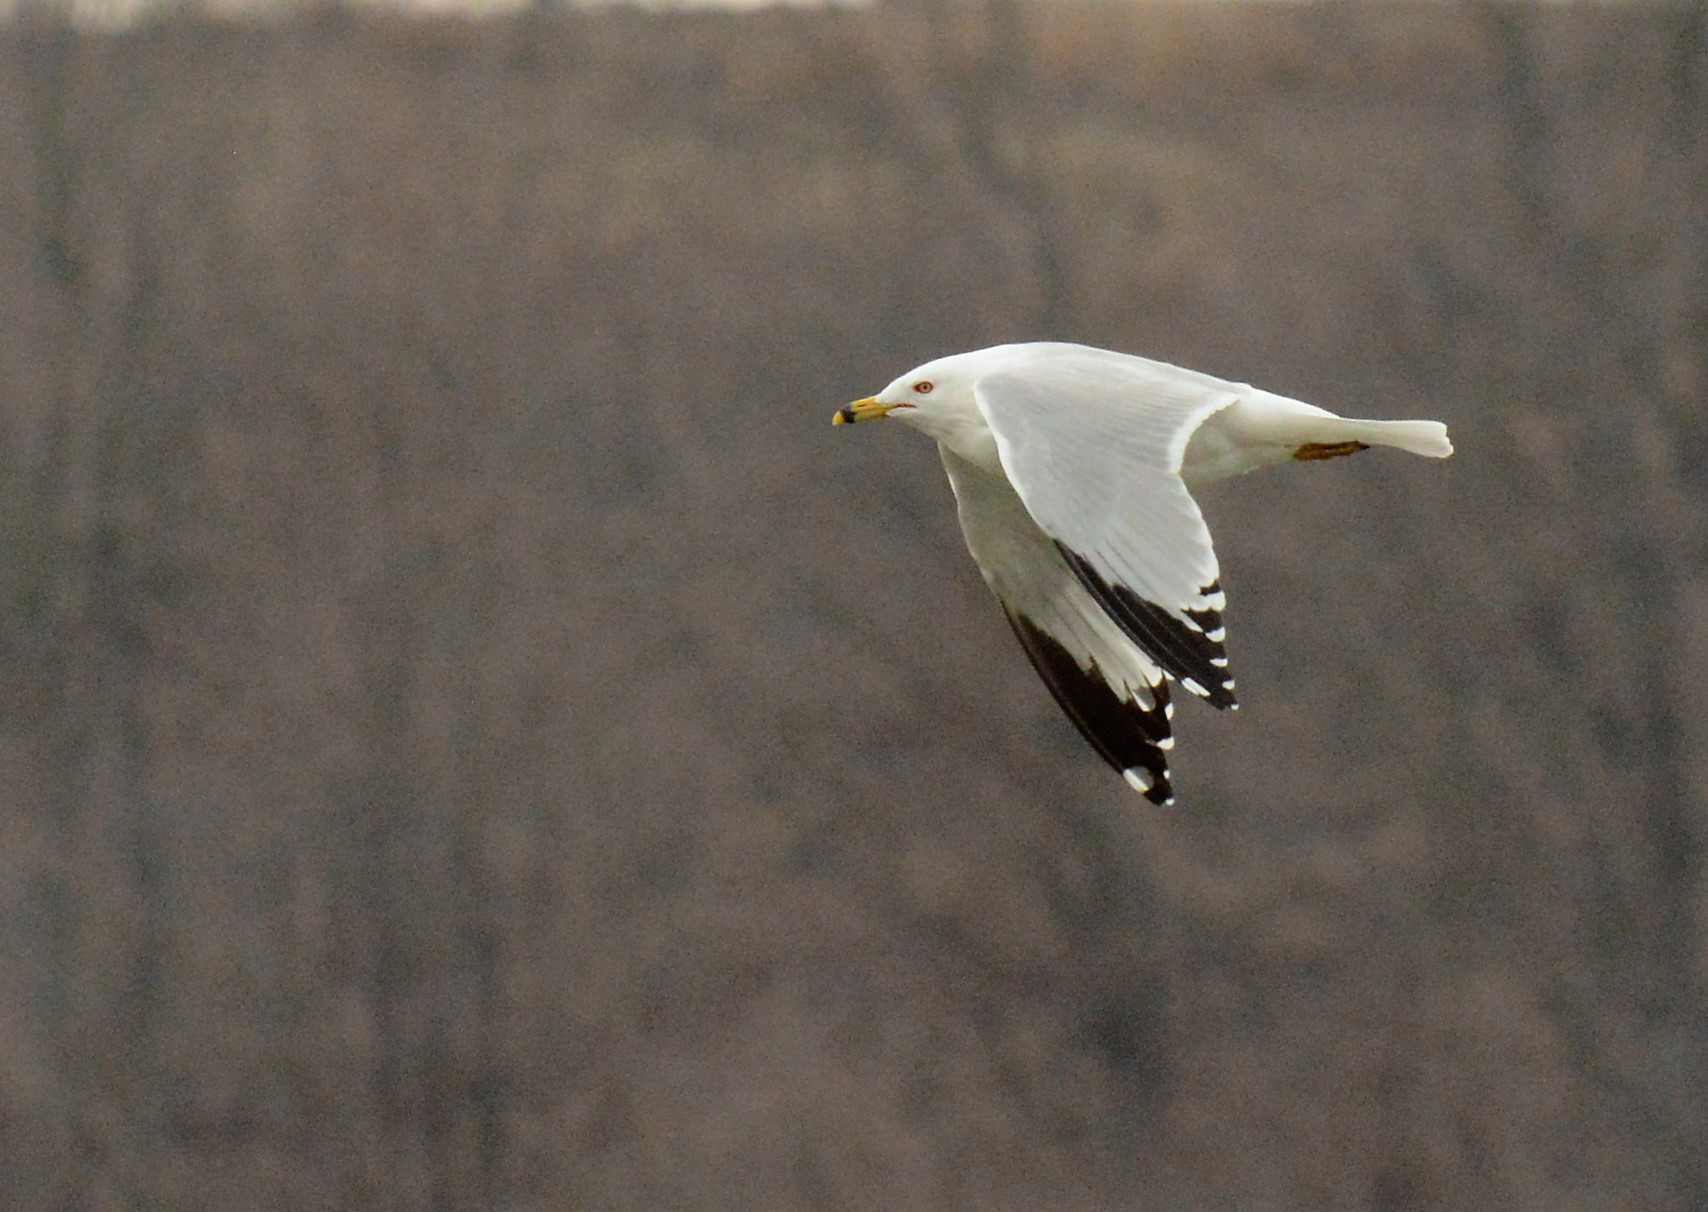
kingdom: Animalia
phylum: Chordata
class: Aves
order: Charadriiformes
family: Laridae
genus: Larus
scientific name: Larus delawarensis
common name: Ring-billed gull
